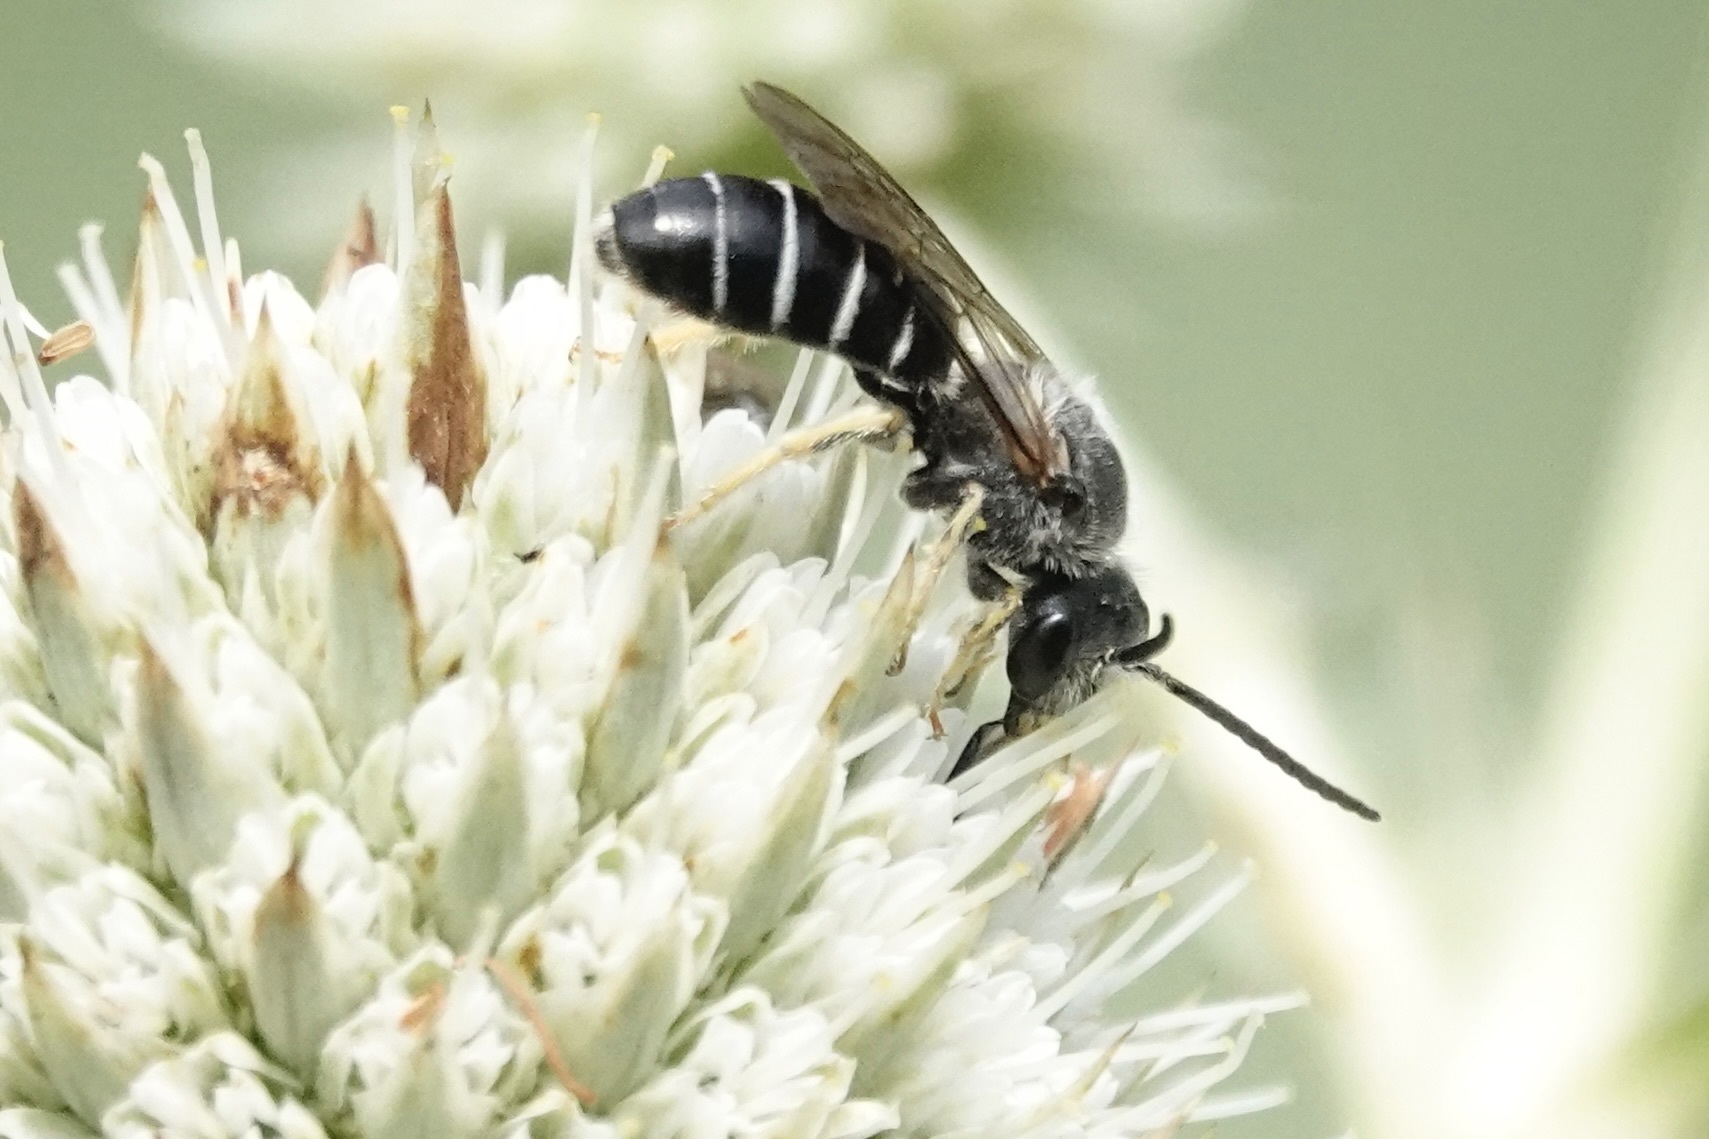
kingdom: Animalia
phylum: Arthropoda
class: Insecta
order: Hymenoptera
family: Halictidae
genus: Halictus
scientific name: Halictus rubicundus
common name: Orange-legged furrow bee
